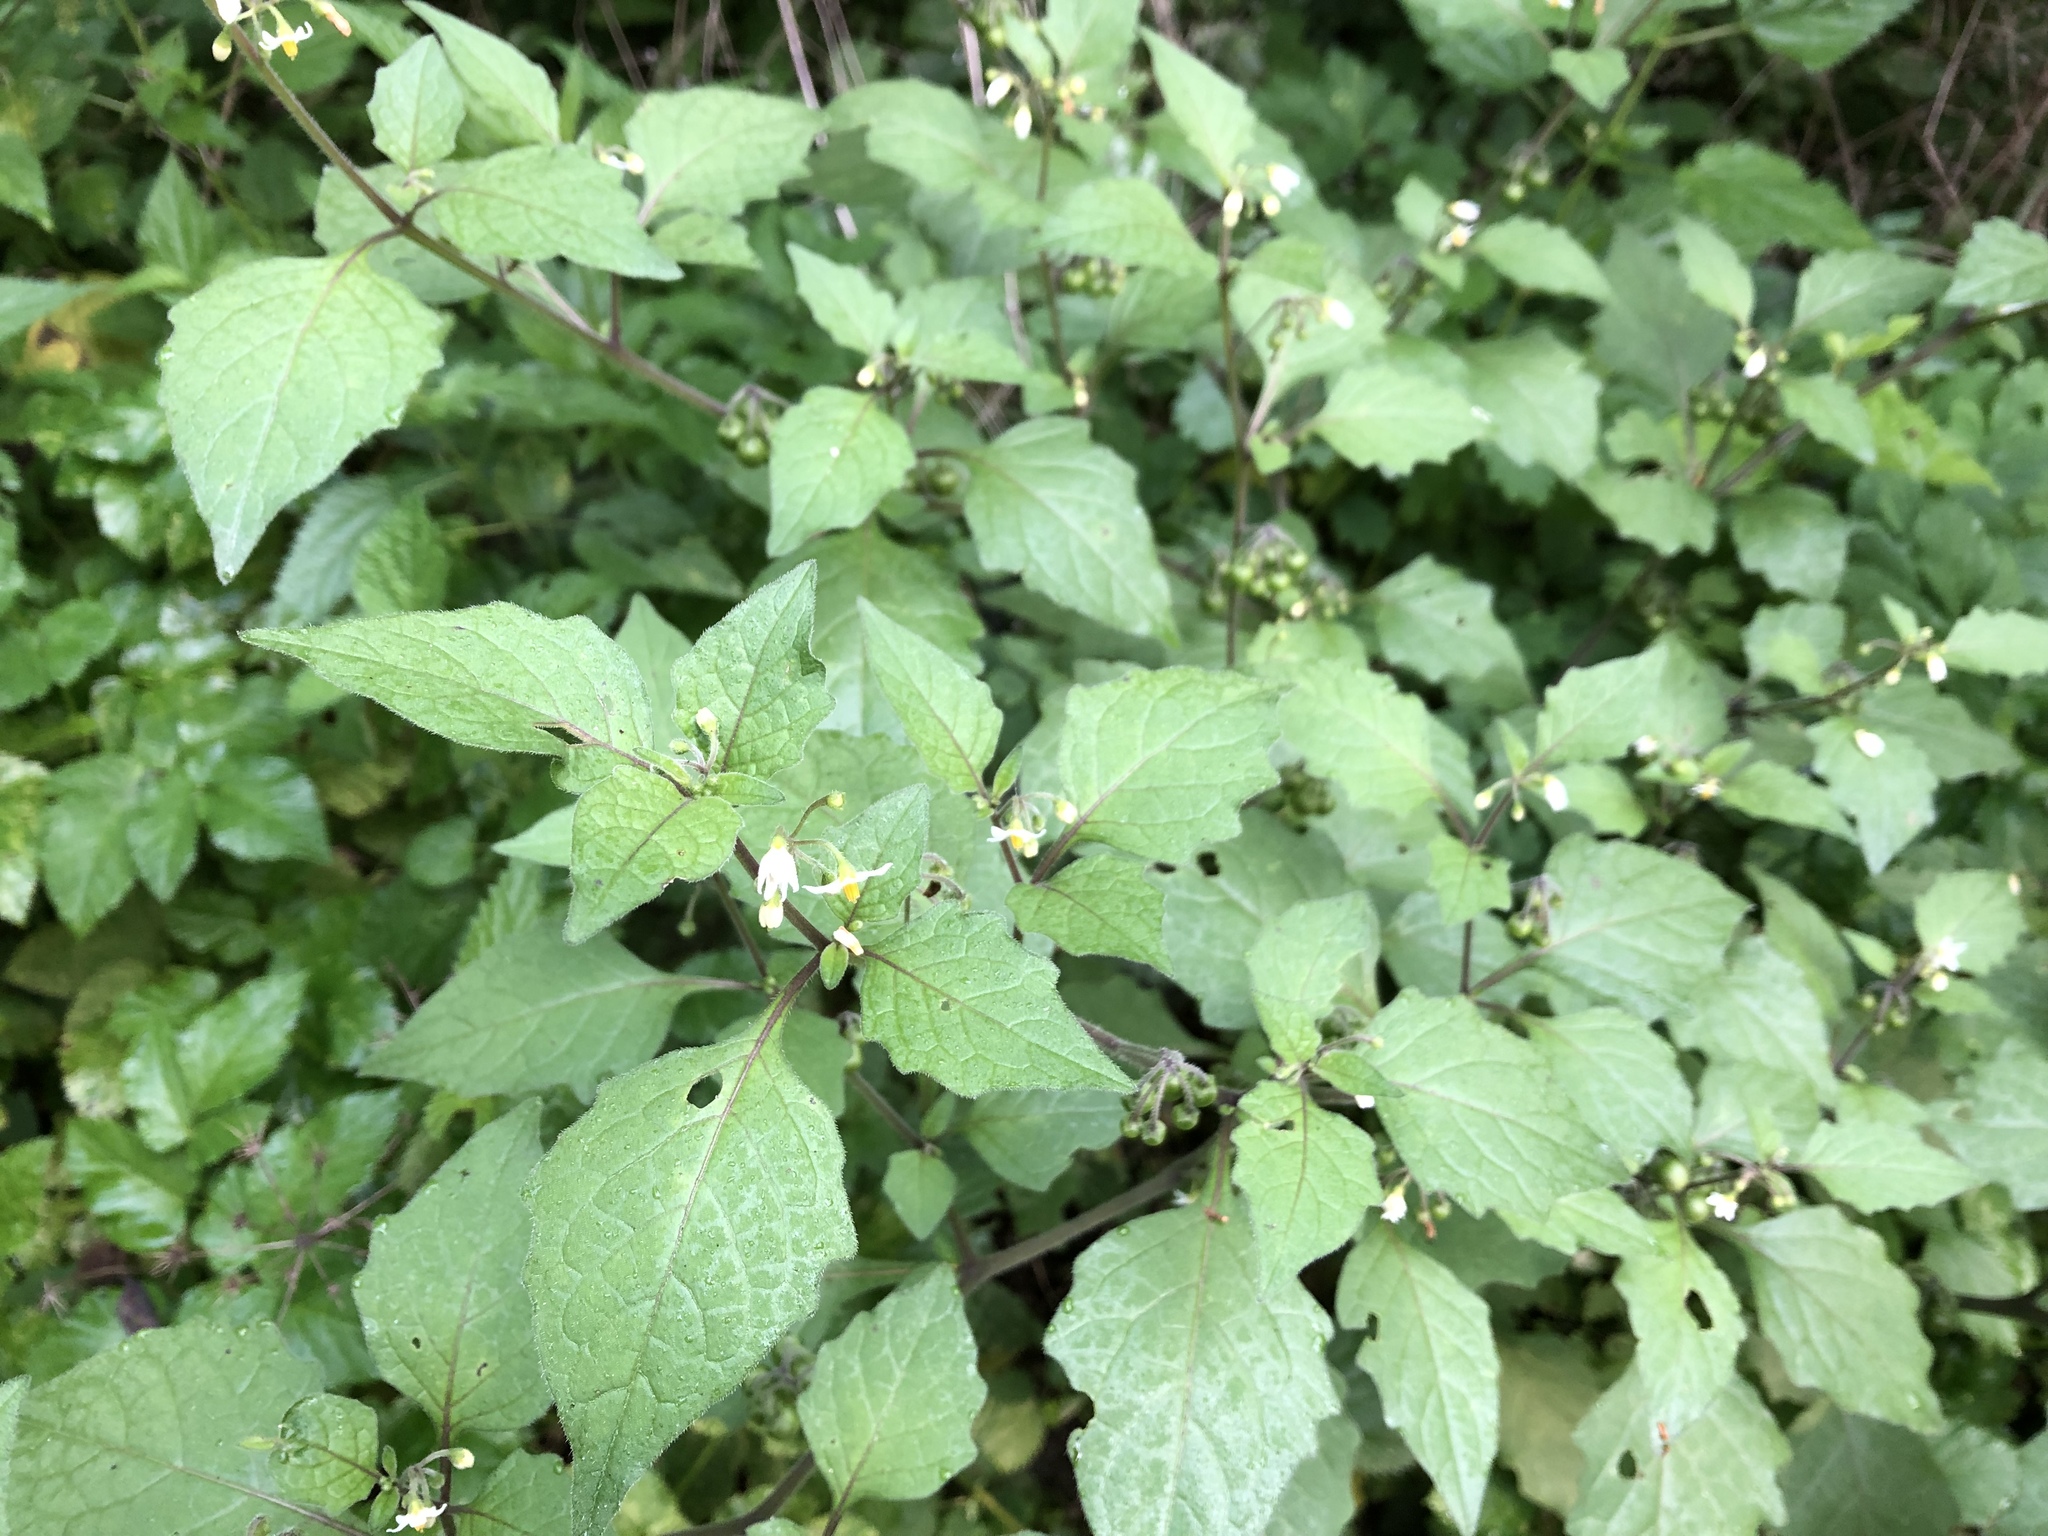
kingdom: Plantae
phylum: Tracheophyta
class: Magnoliopsida
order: Solanales
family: Solanaceae
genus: Solanum
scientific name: Solanum nigrum
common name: Black nightshade
